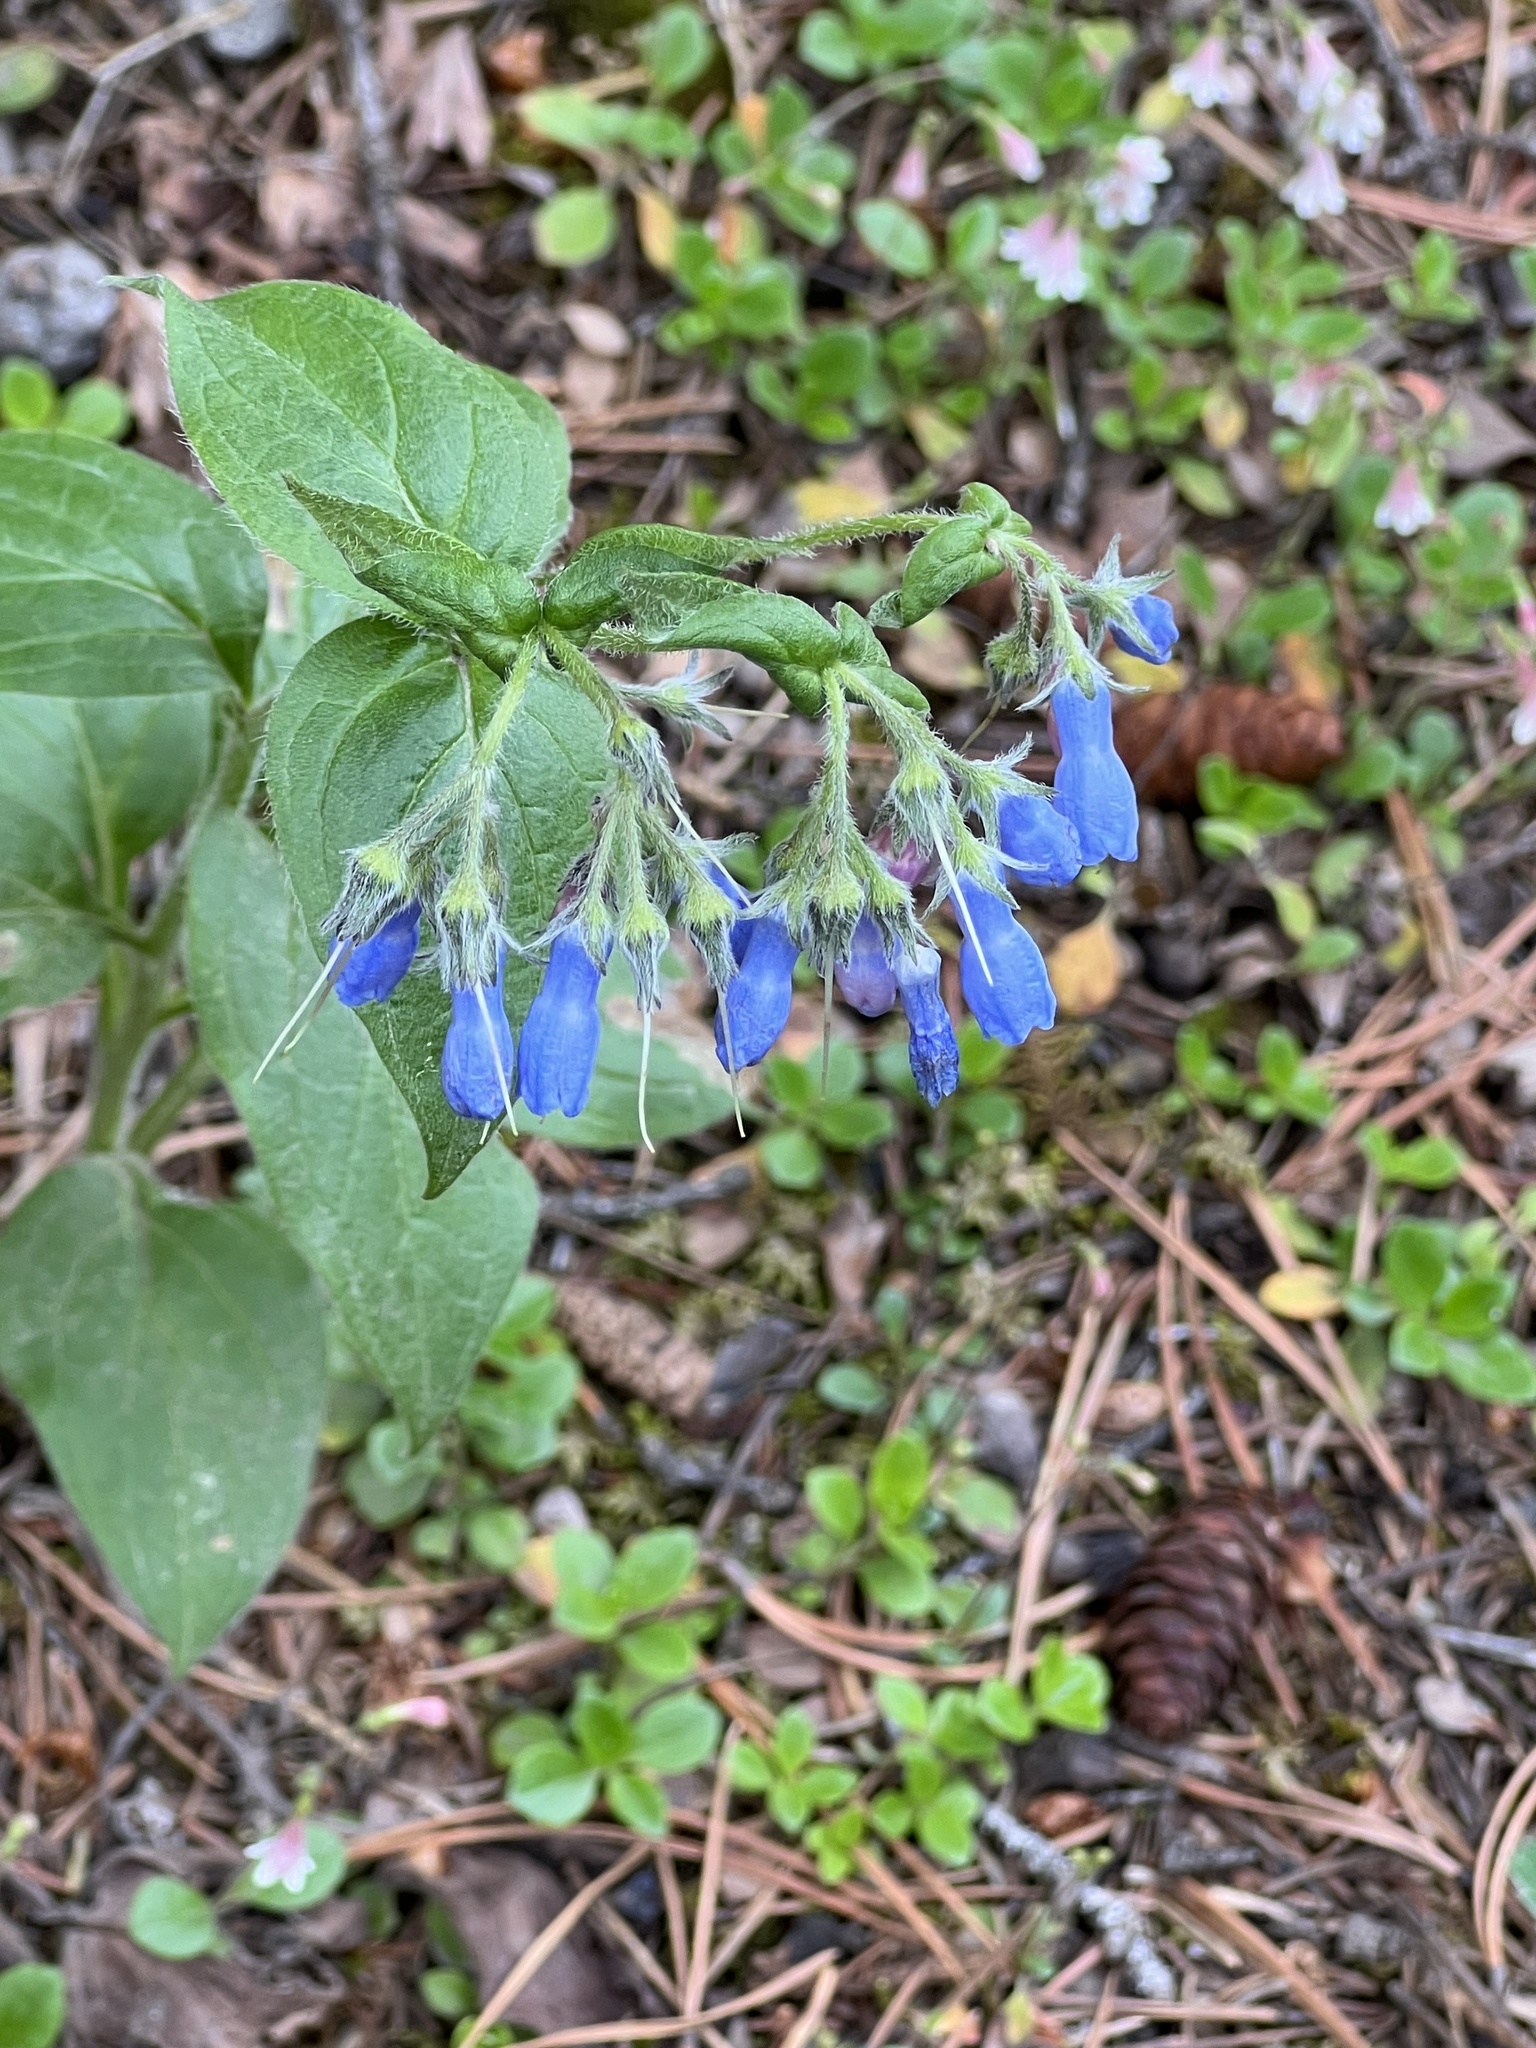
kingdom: Plantae
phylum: Tracheophyta
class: Magnoliopsida
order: Boraginales
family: Boraginaceae
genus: Mertensia
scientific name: Mertensia paniculata
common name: Panicled bluebells
